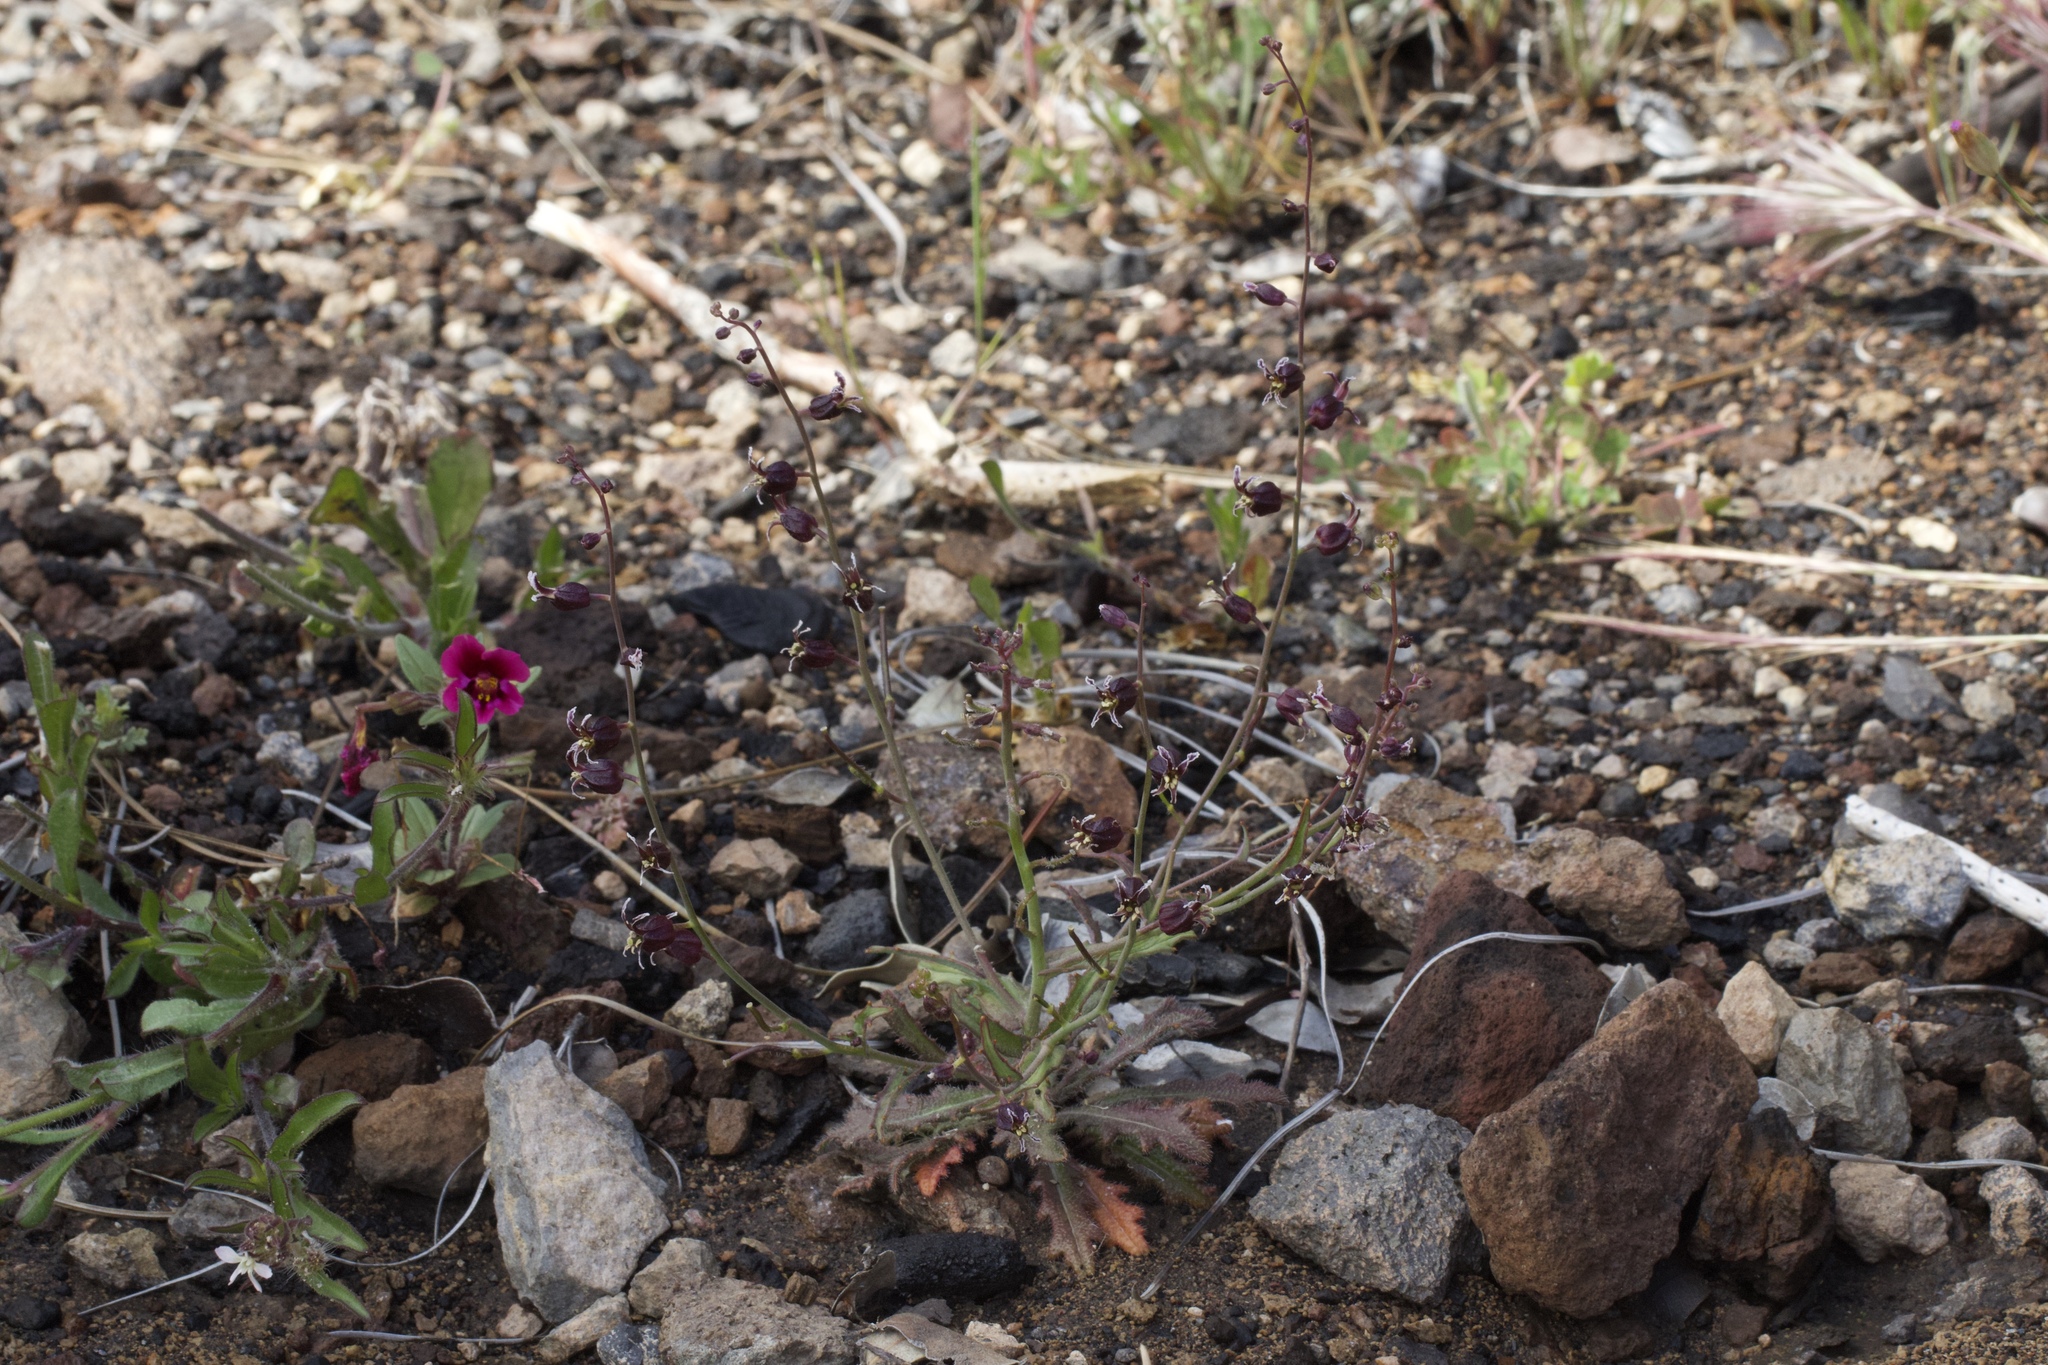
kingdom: Plantae
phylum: Tracheophyta
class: Magnoliopsida
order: Brassicales
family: Brassicaceae
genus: Streptanthus
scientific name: Streptanthus glandulosus
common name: Jewel-flower
